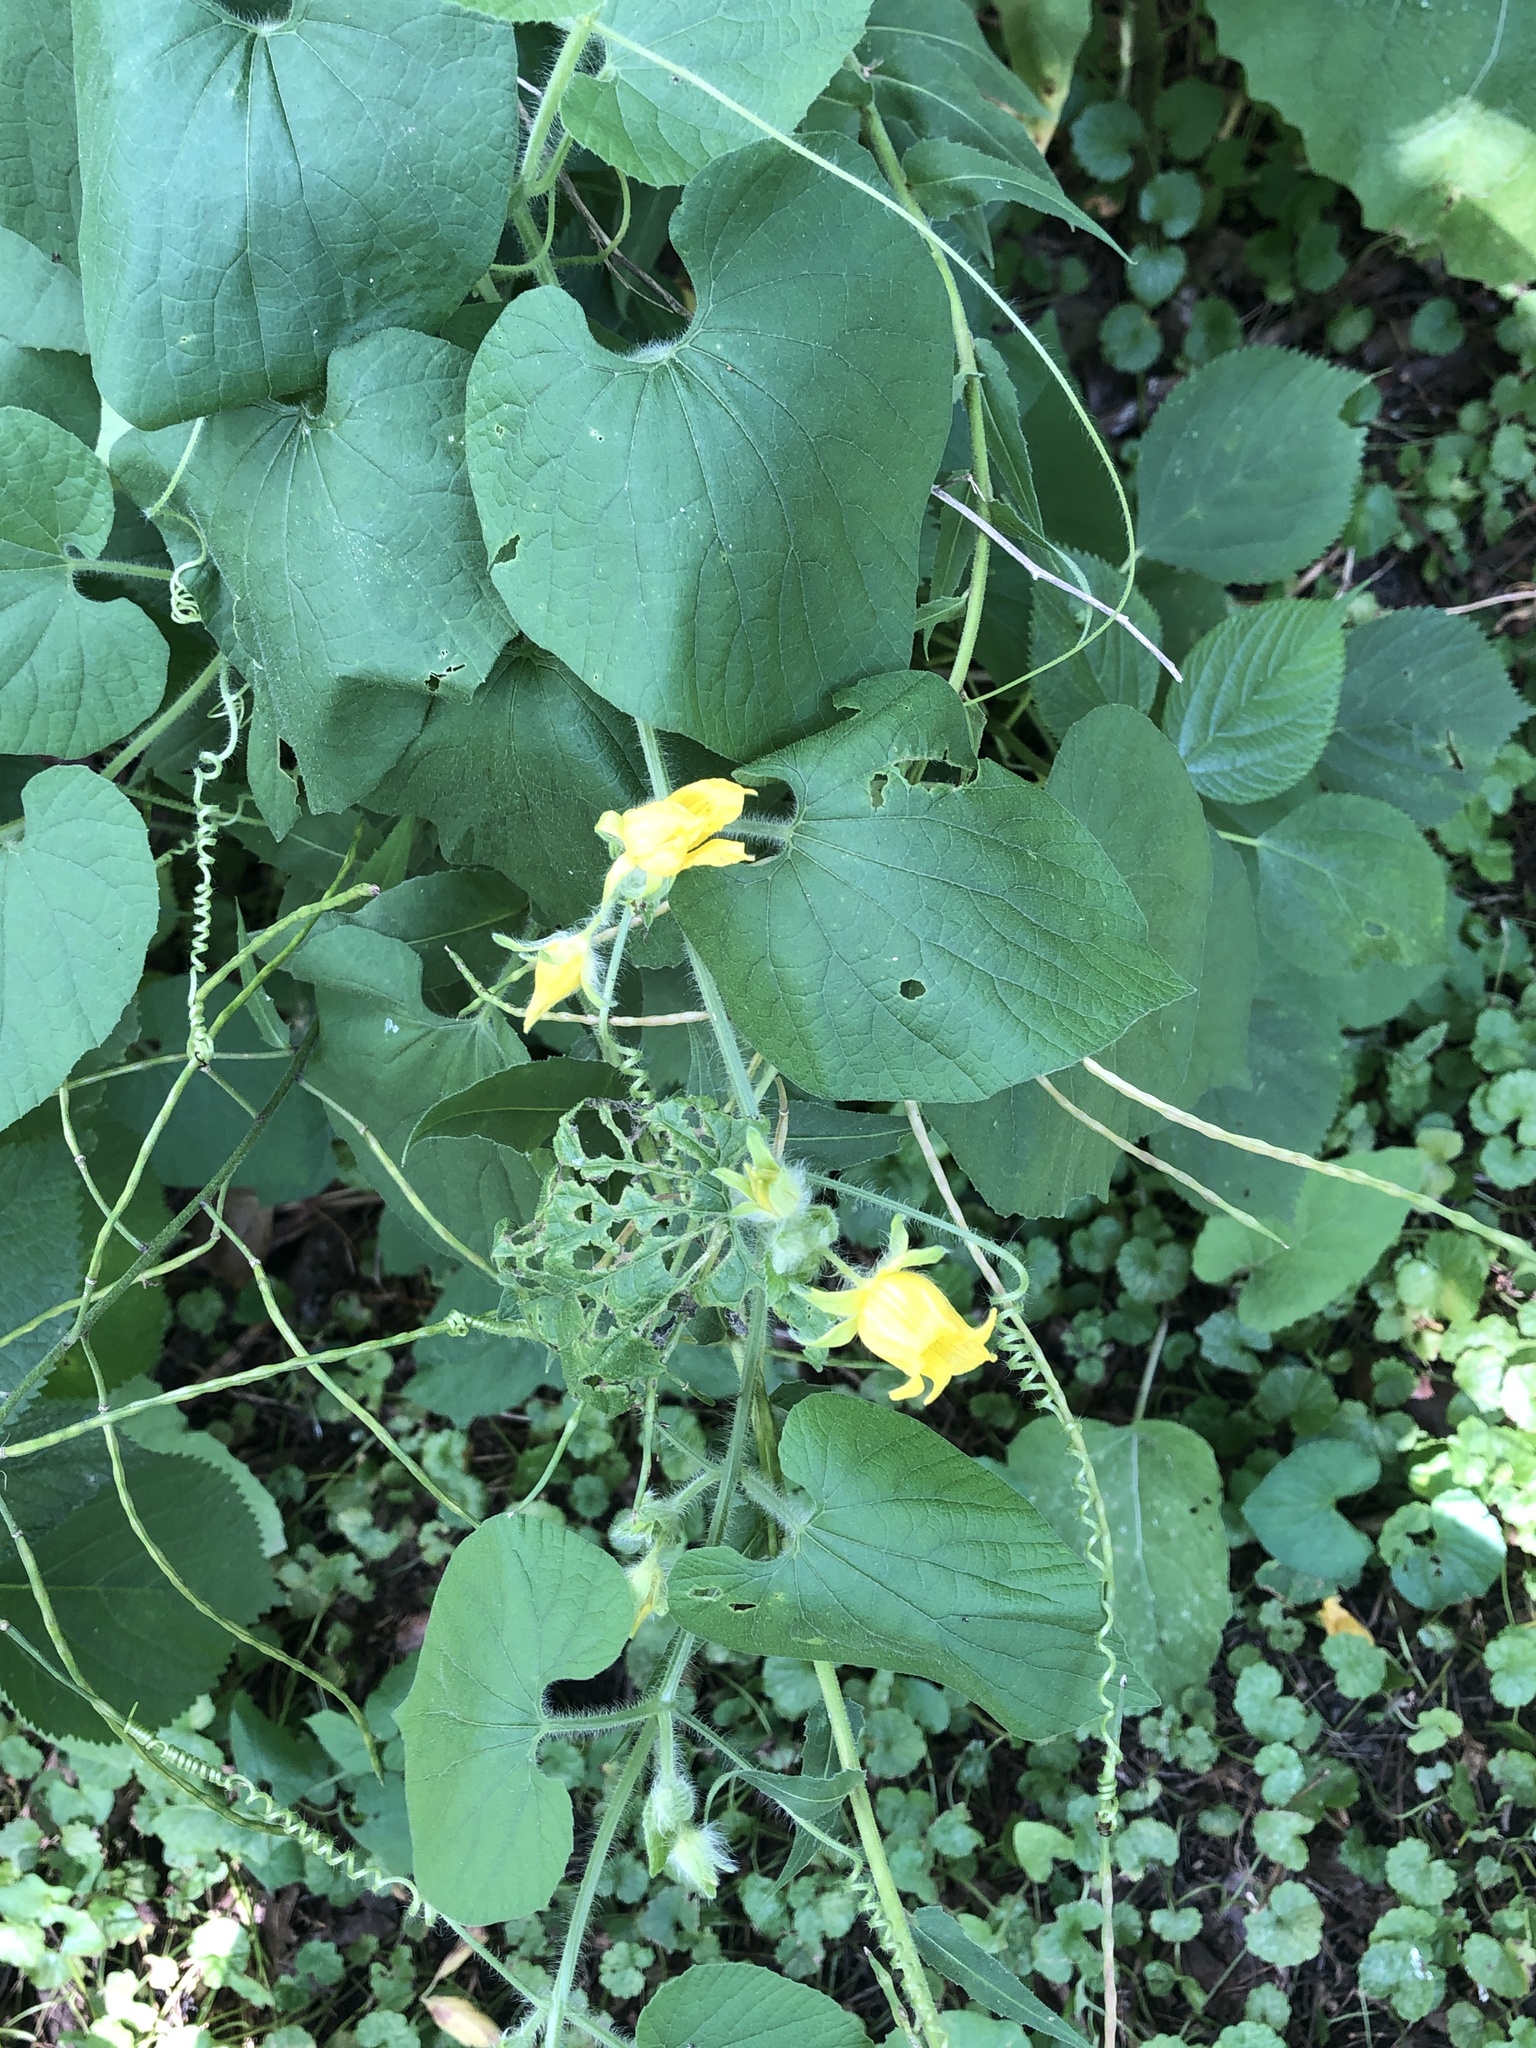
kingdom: Plantae
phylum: Tracheophyta
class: Magnoliopsida
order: Cucurbitales
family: Cucurbitaceae
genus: Thladiantha
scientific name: Thladiantha dubia
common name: Manchu tubergourd
